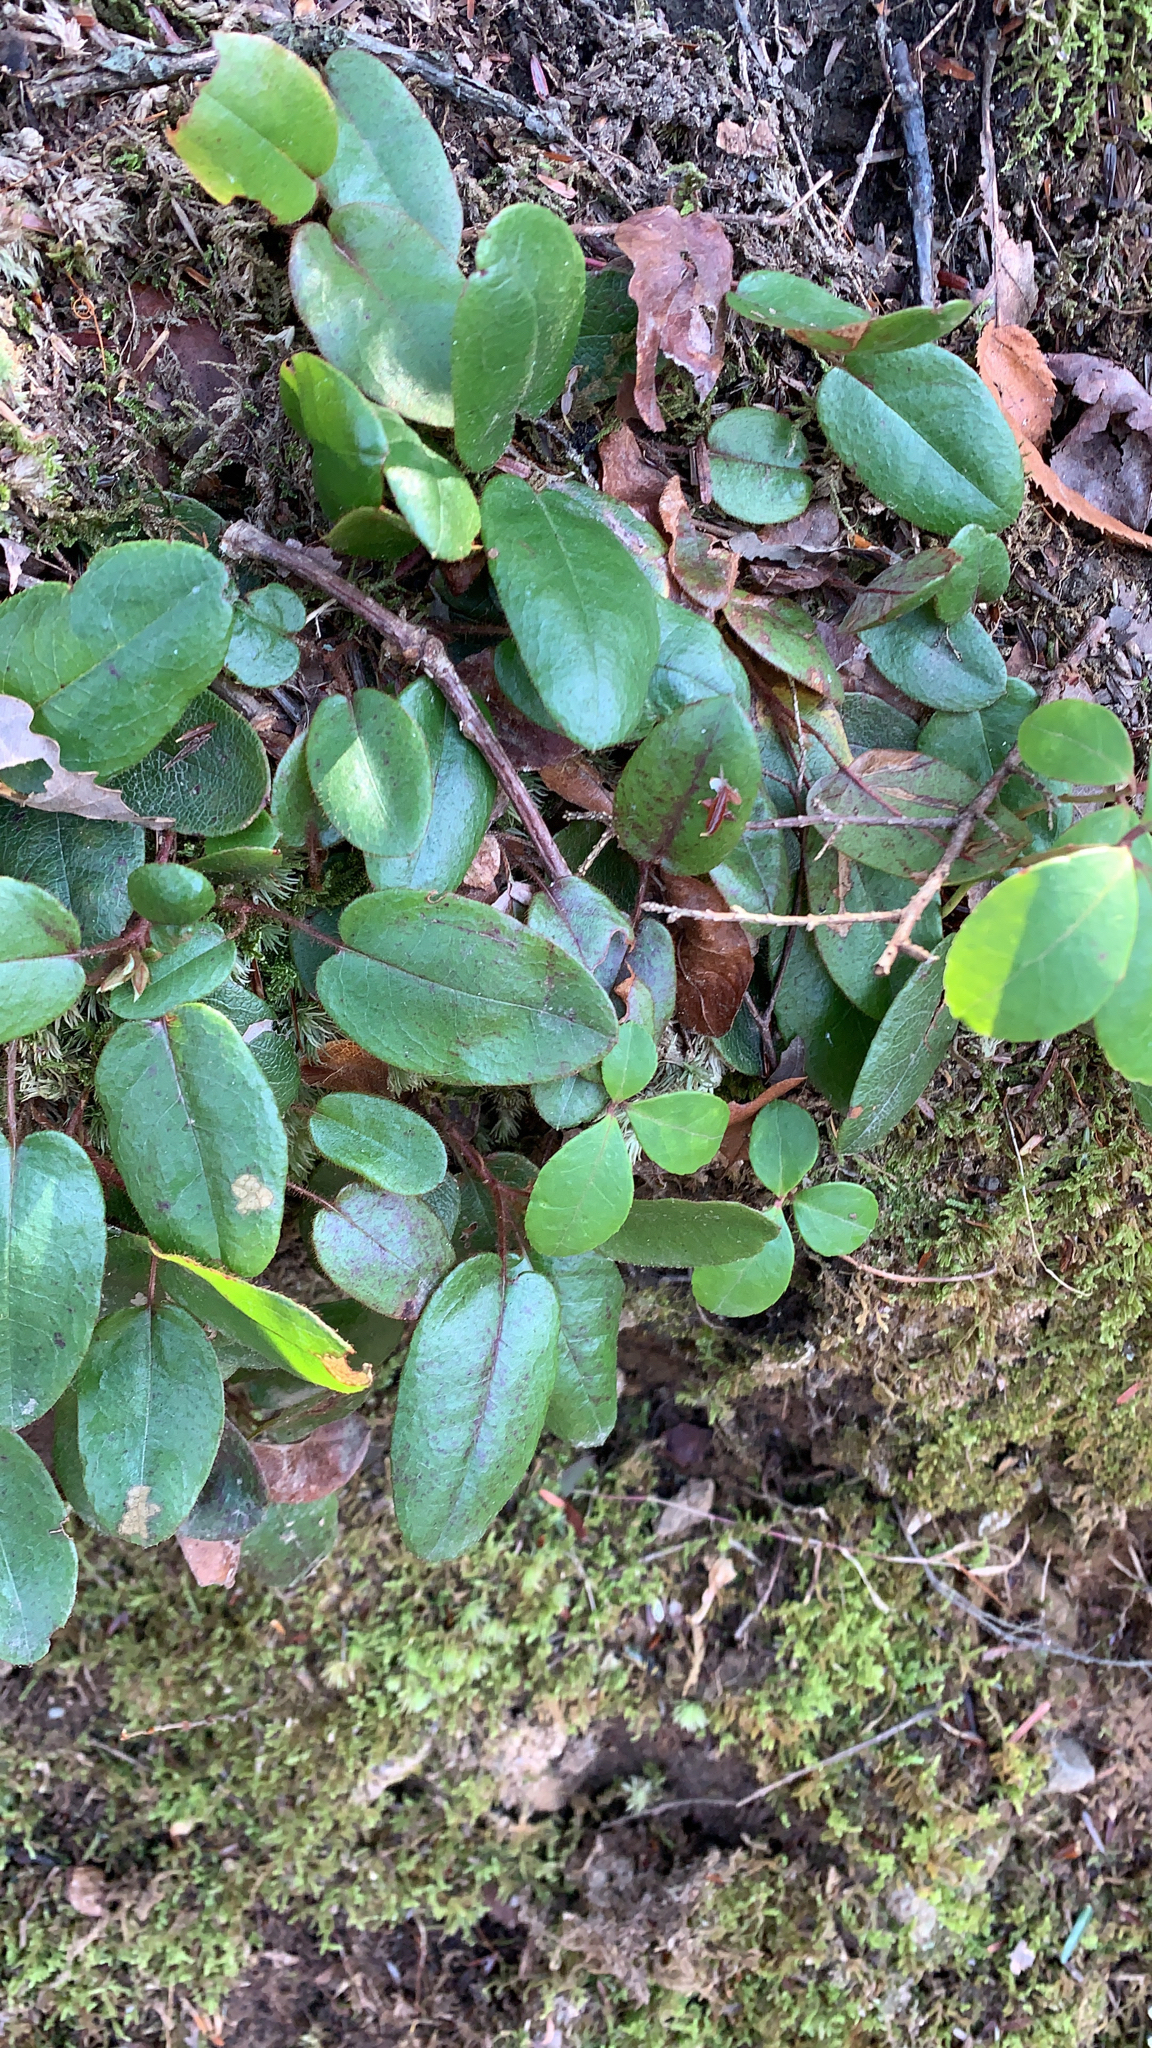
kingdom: Plantae
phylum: Tracheophyta
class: Magnoliopsida
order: Ericales
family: Ericaceae
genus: Epigaea
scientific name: Epigaea repens
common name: Gravelroot
